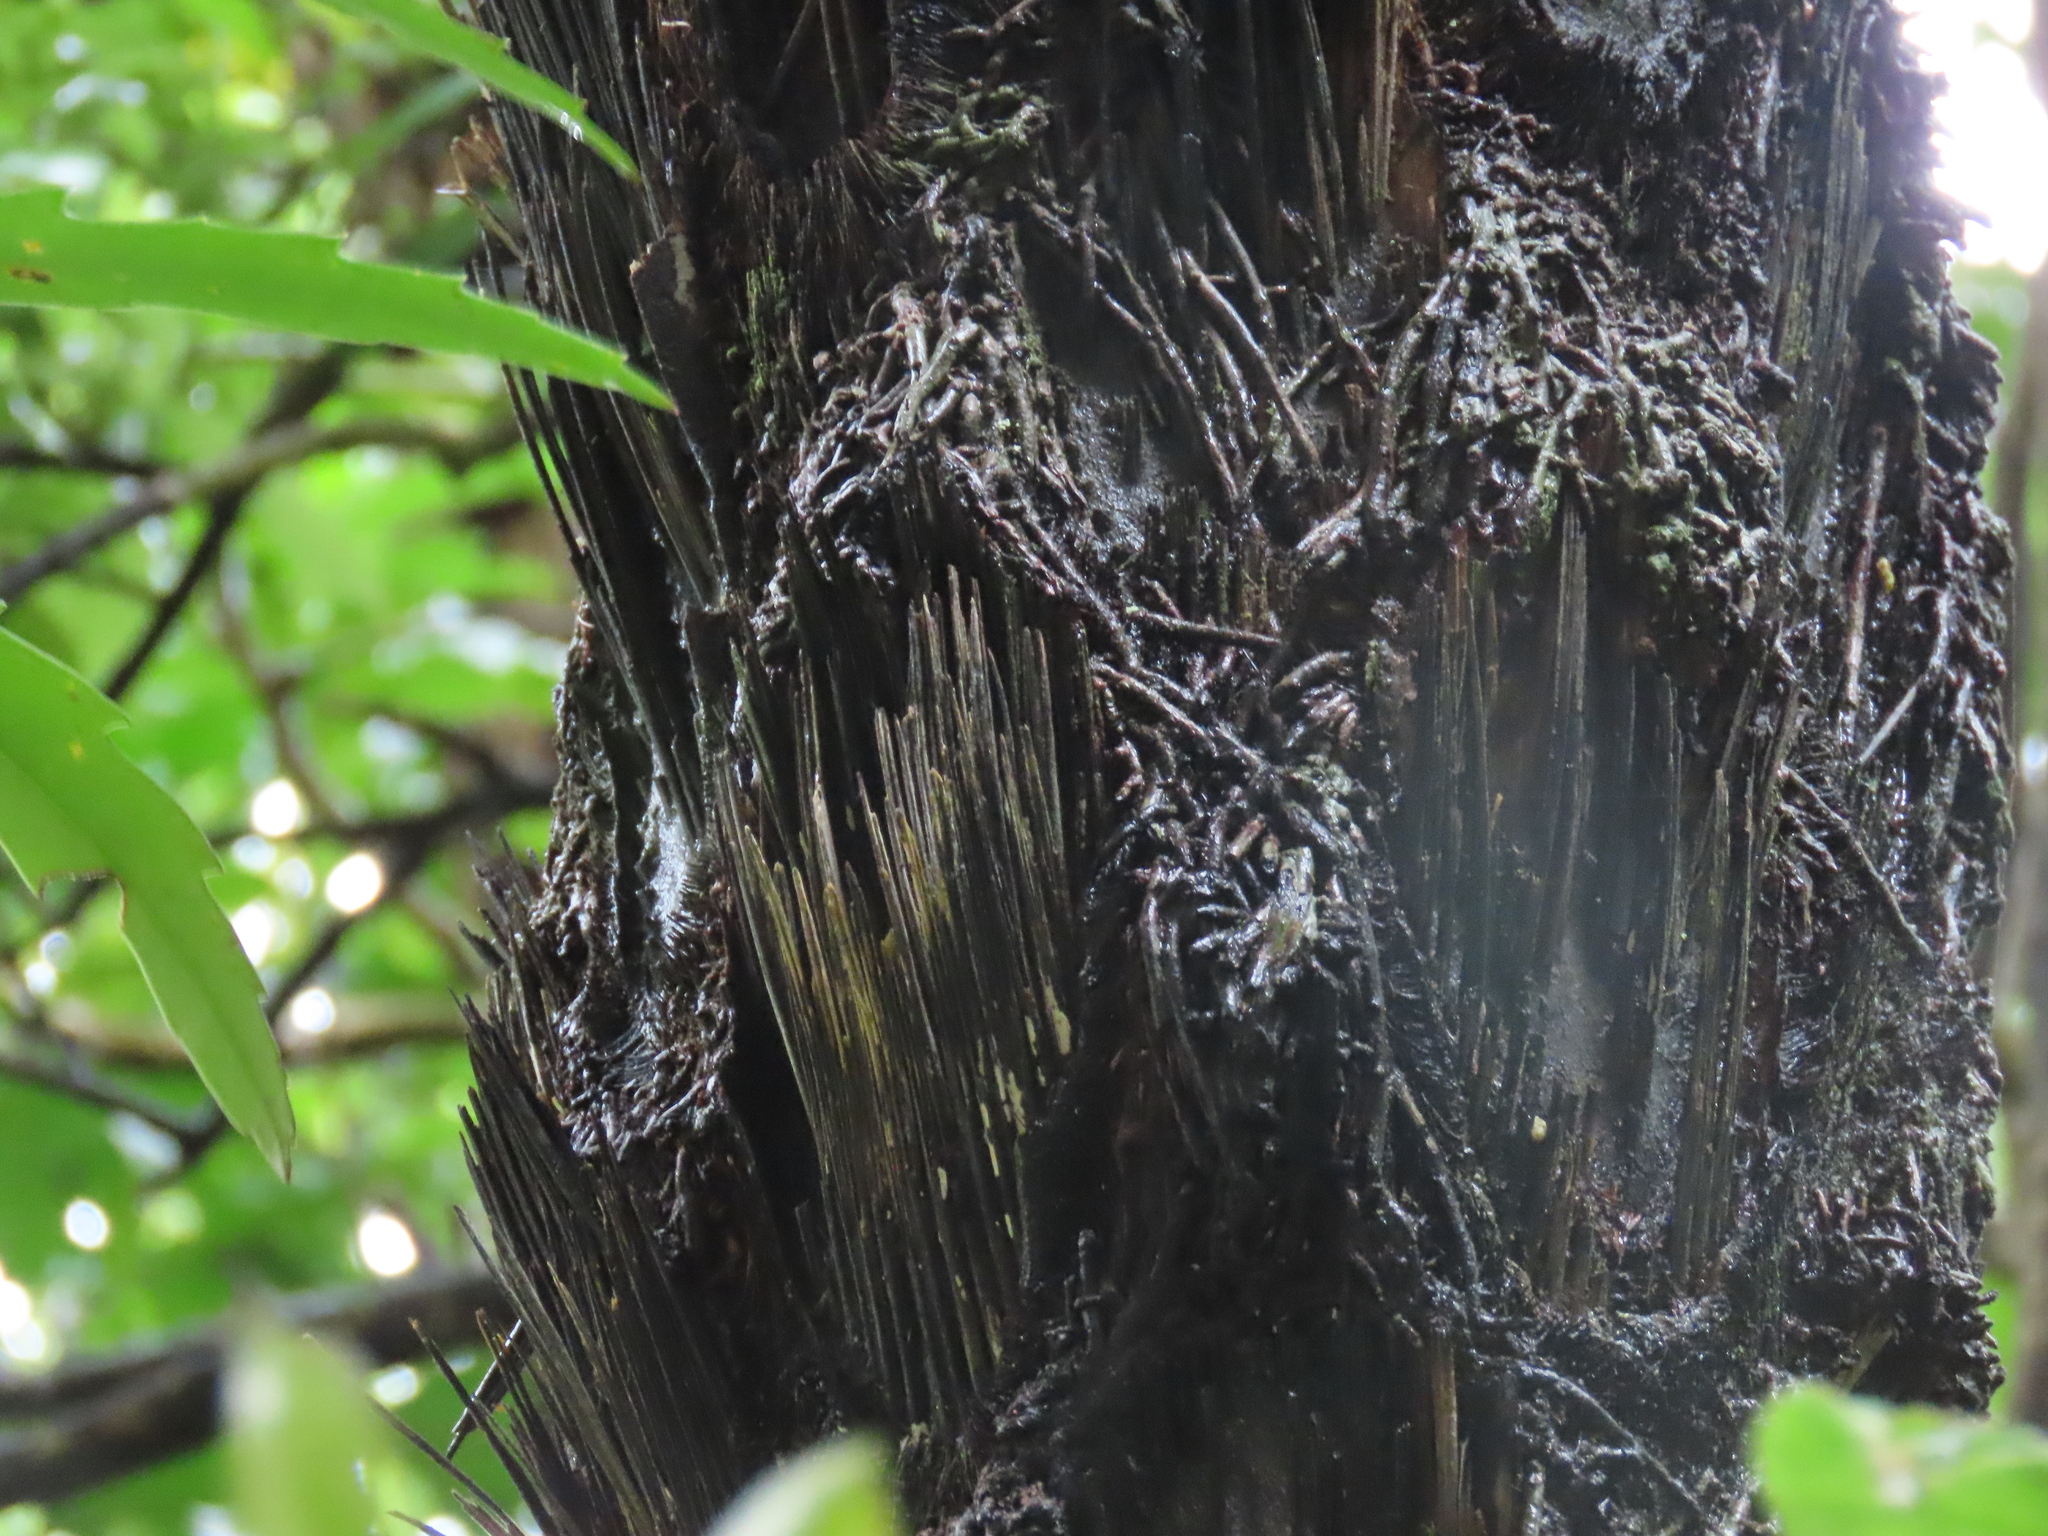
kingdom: Plantae
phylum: Tracheophyta
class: Polypodiopsida
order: Cyatheales
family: Cyatheaceae
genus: Sphaeropteris
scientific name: Sphaeropteris medullaris
